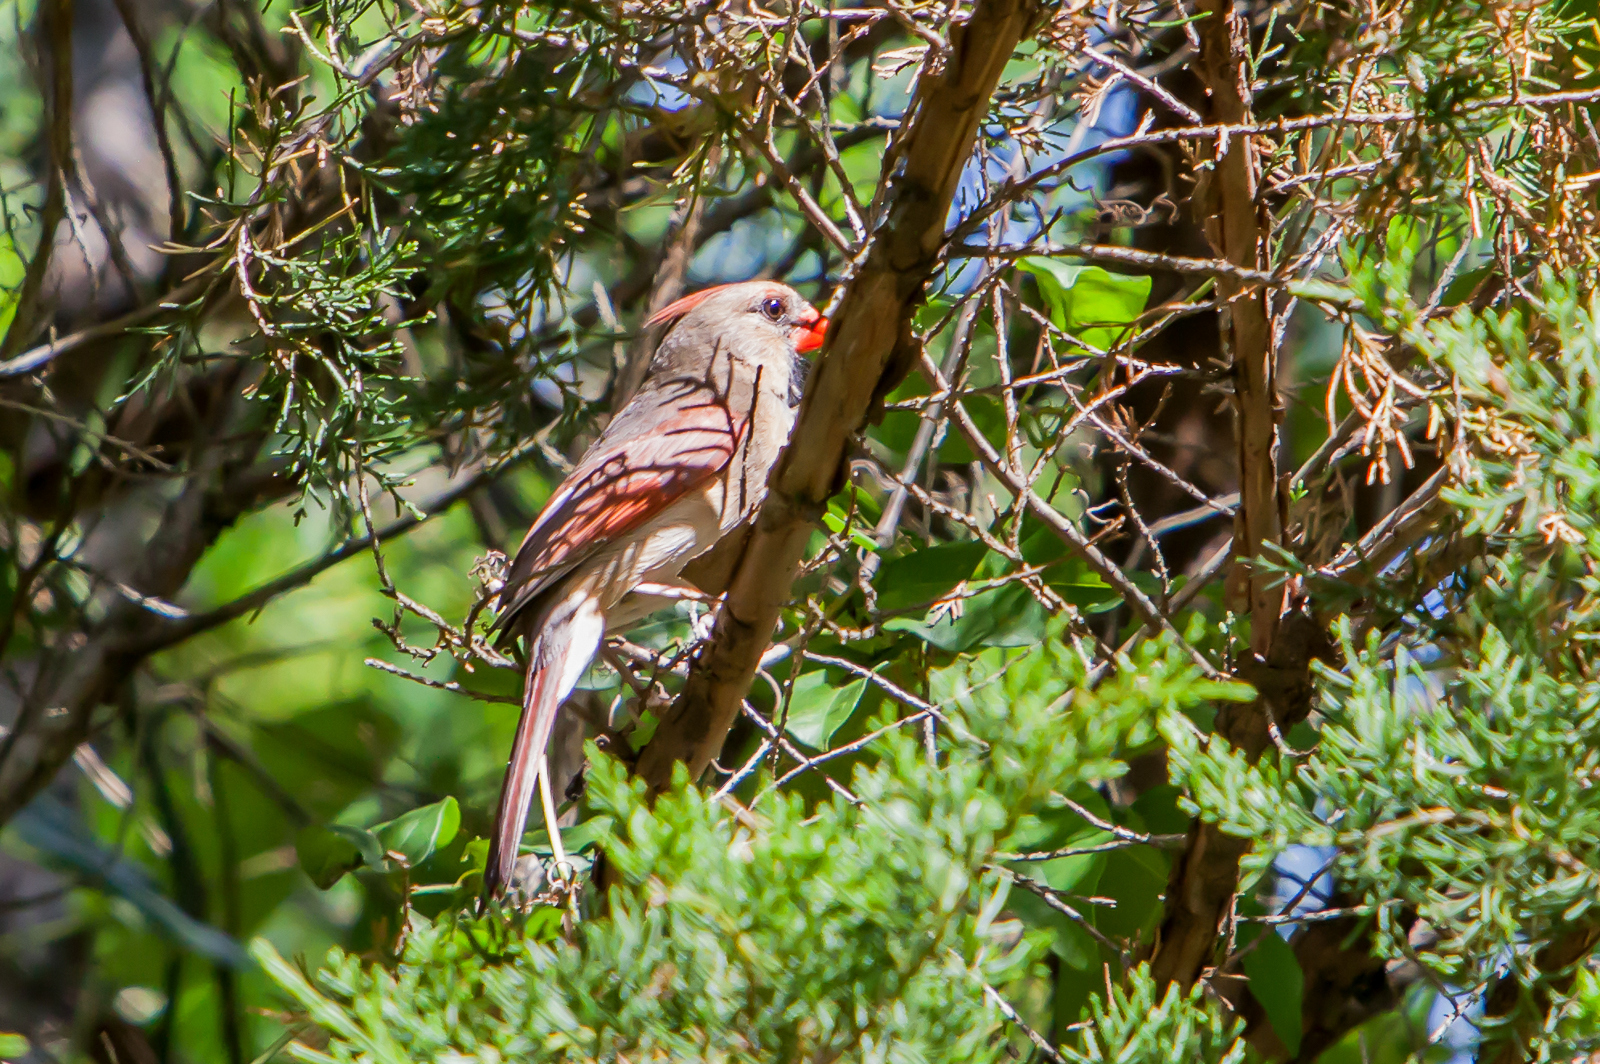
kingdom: Animalia
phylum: Chordata
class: Aves
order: Passeriformes
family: Cardinalidae
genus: Cardinalis
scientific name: Cardinalis cardinalis
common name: Northern cardinal
